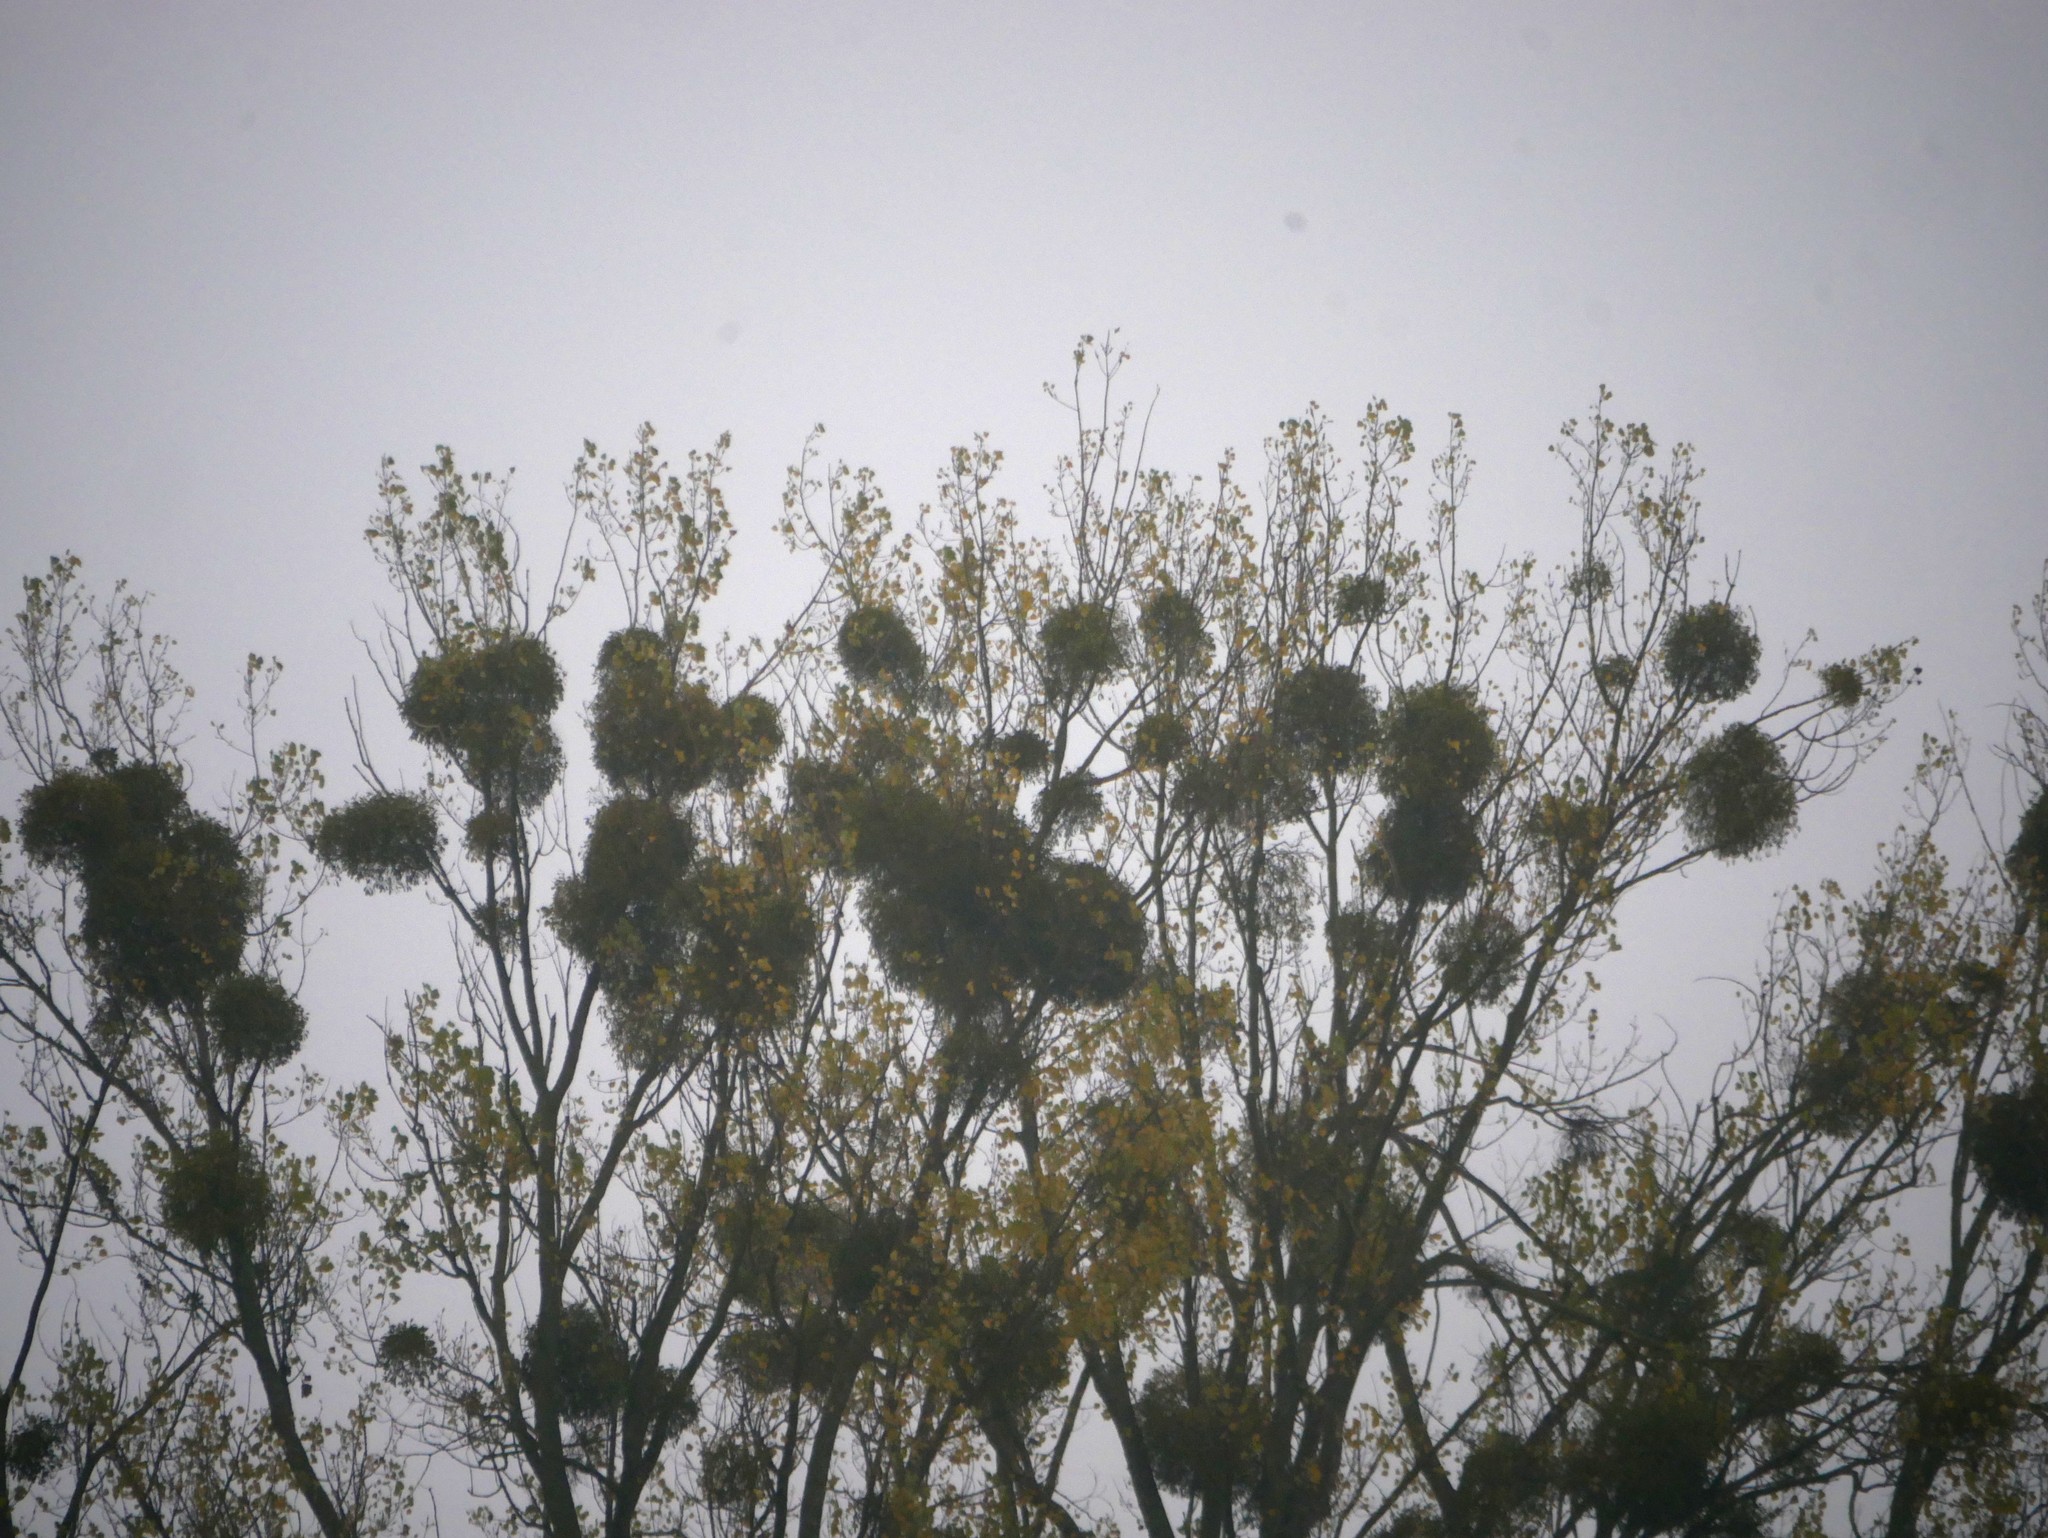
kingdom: Plantae
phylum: Tracheophyta
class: Magnoliopsida
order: Santalales
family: Viscaceae
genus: Viscum
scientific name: Viscum album
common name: Mistletoe
